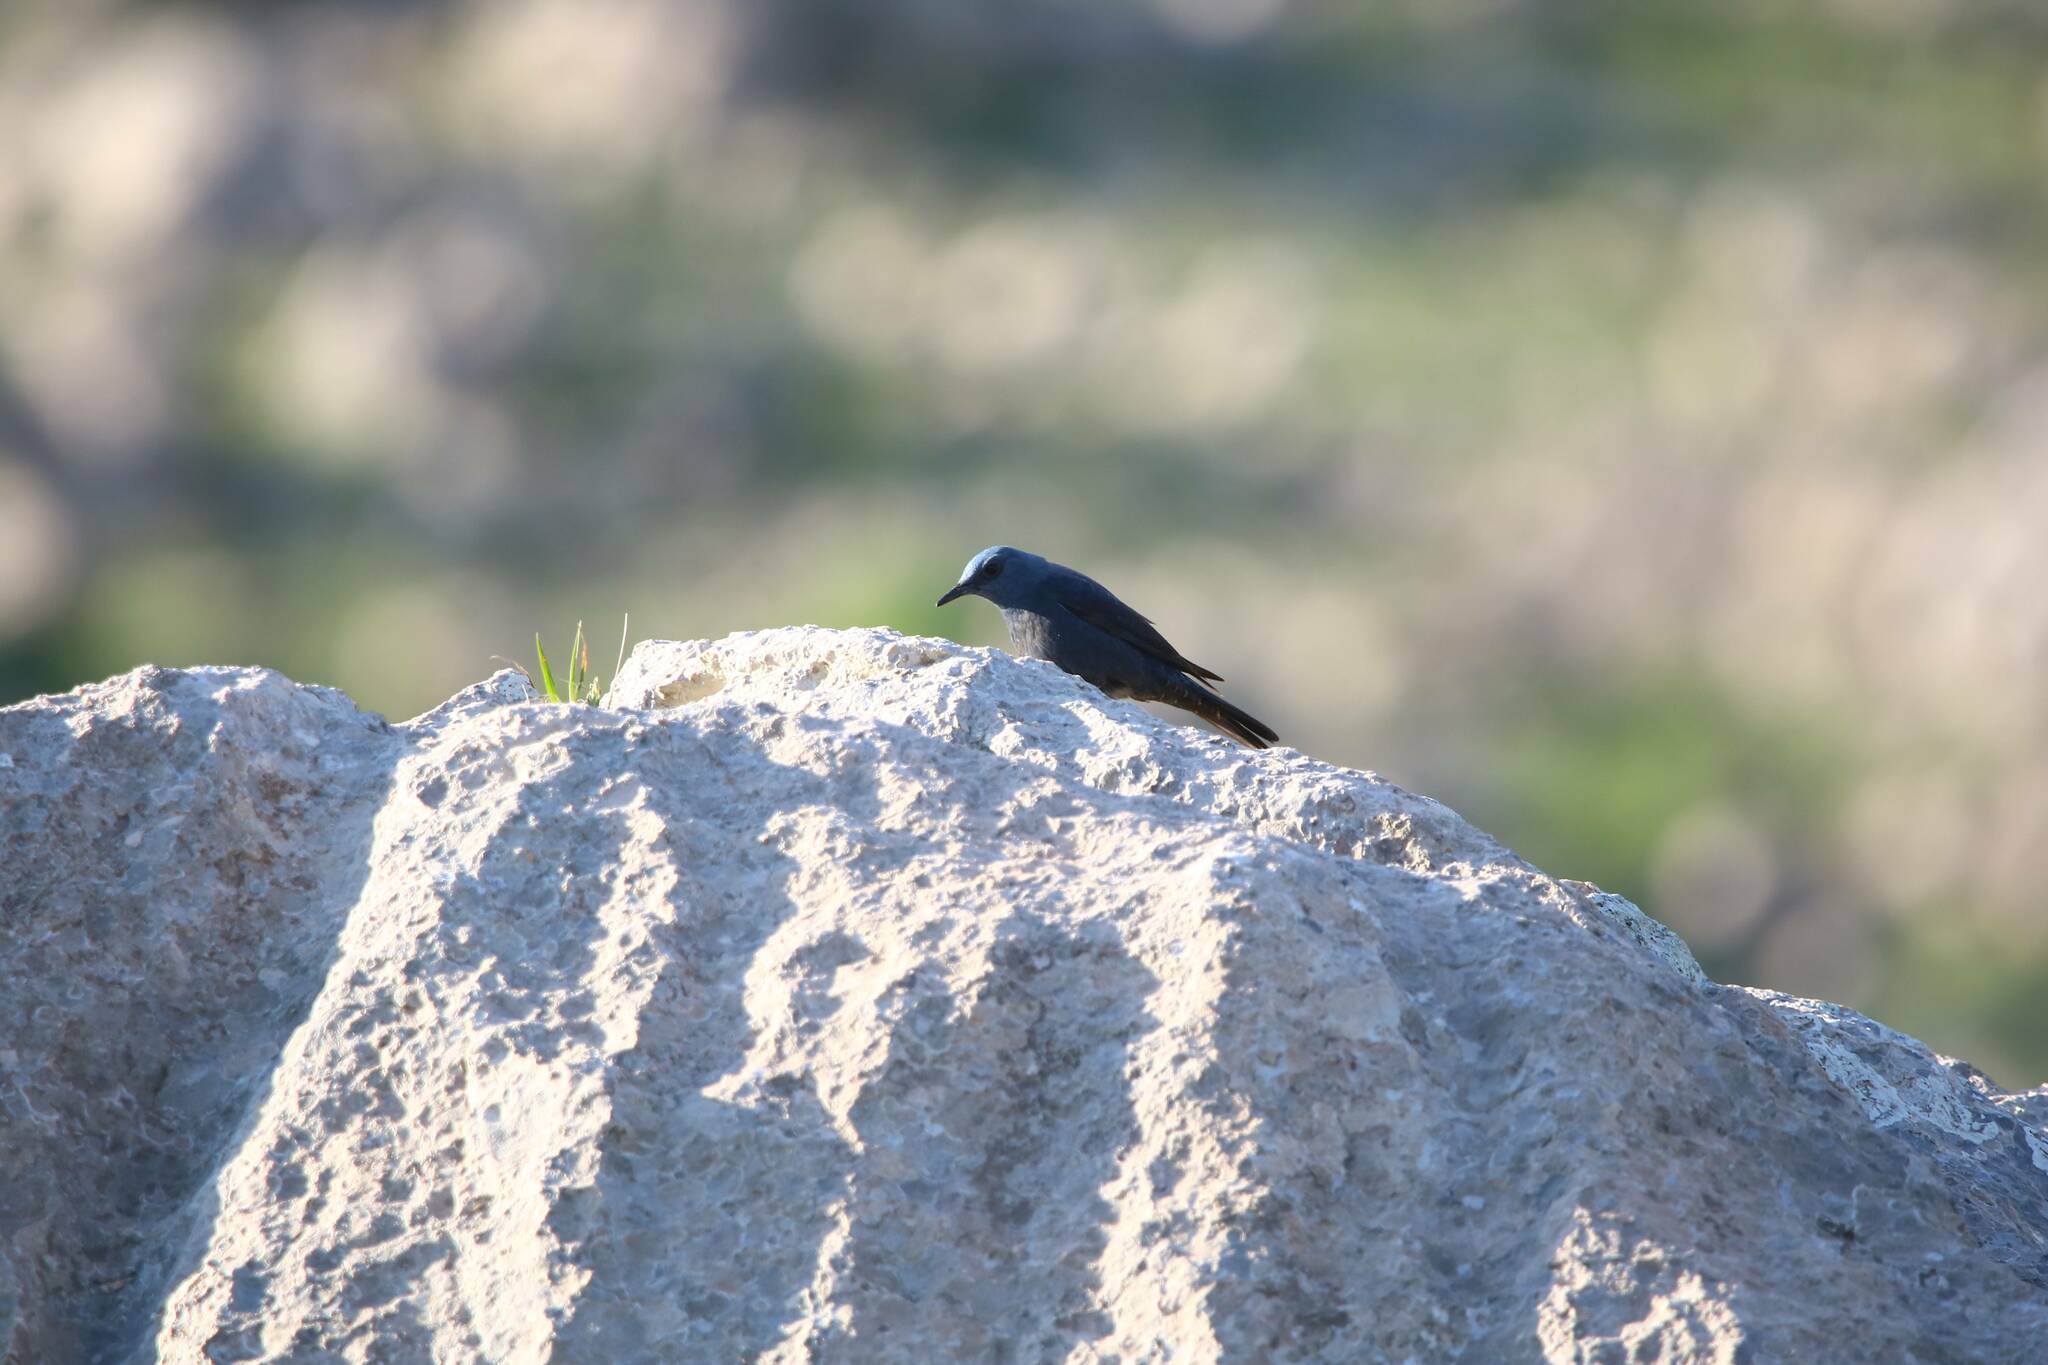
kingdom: Animalia
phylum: Chordata
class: Aves
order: Passeriformes
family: Muscicapidae
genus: Monticola
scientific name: Monticola solitarius
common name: Blue rock thrush
